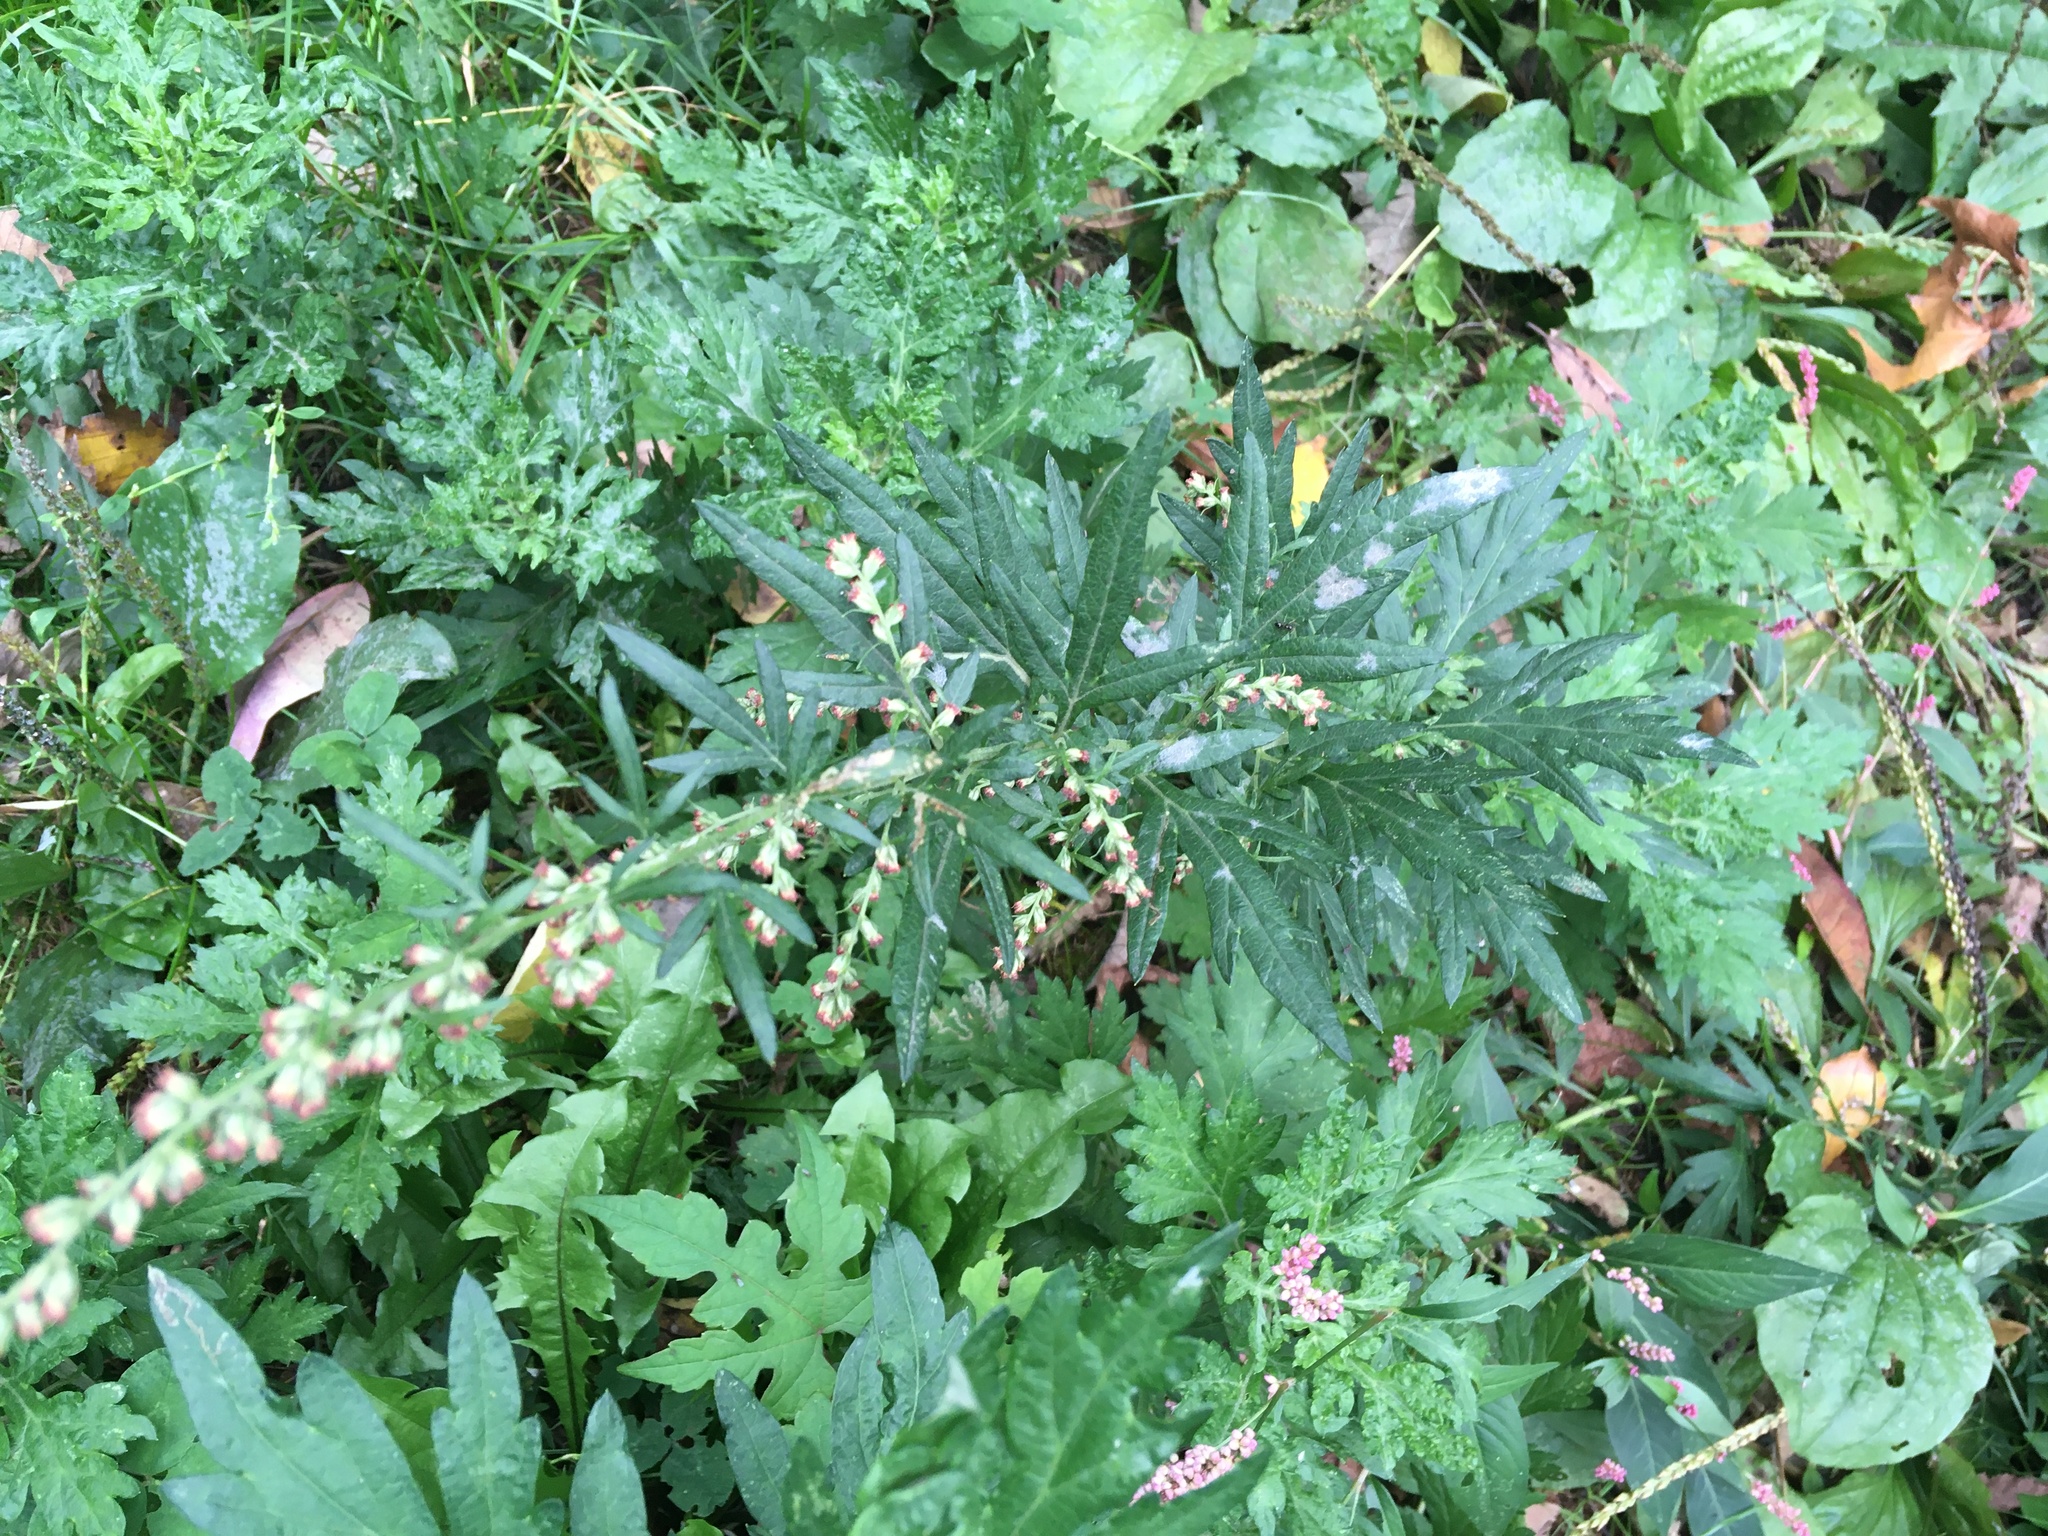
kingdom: Plantae
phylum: Tracheophyta
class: Magnoliopsida
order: Asterales
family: Asteraceae
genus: Artemisia
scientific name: Artemisia vulgaris
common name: Mugwort
